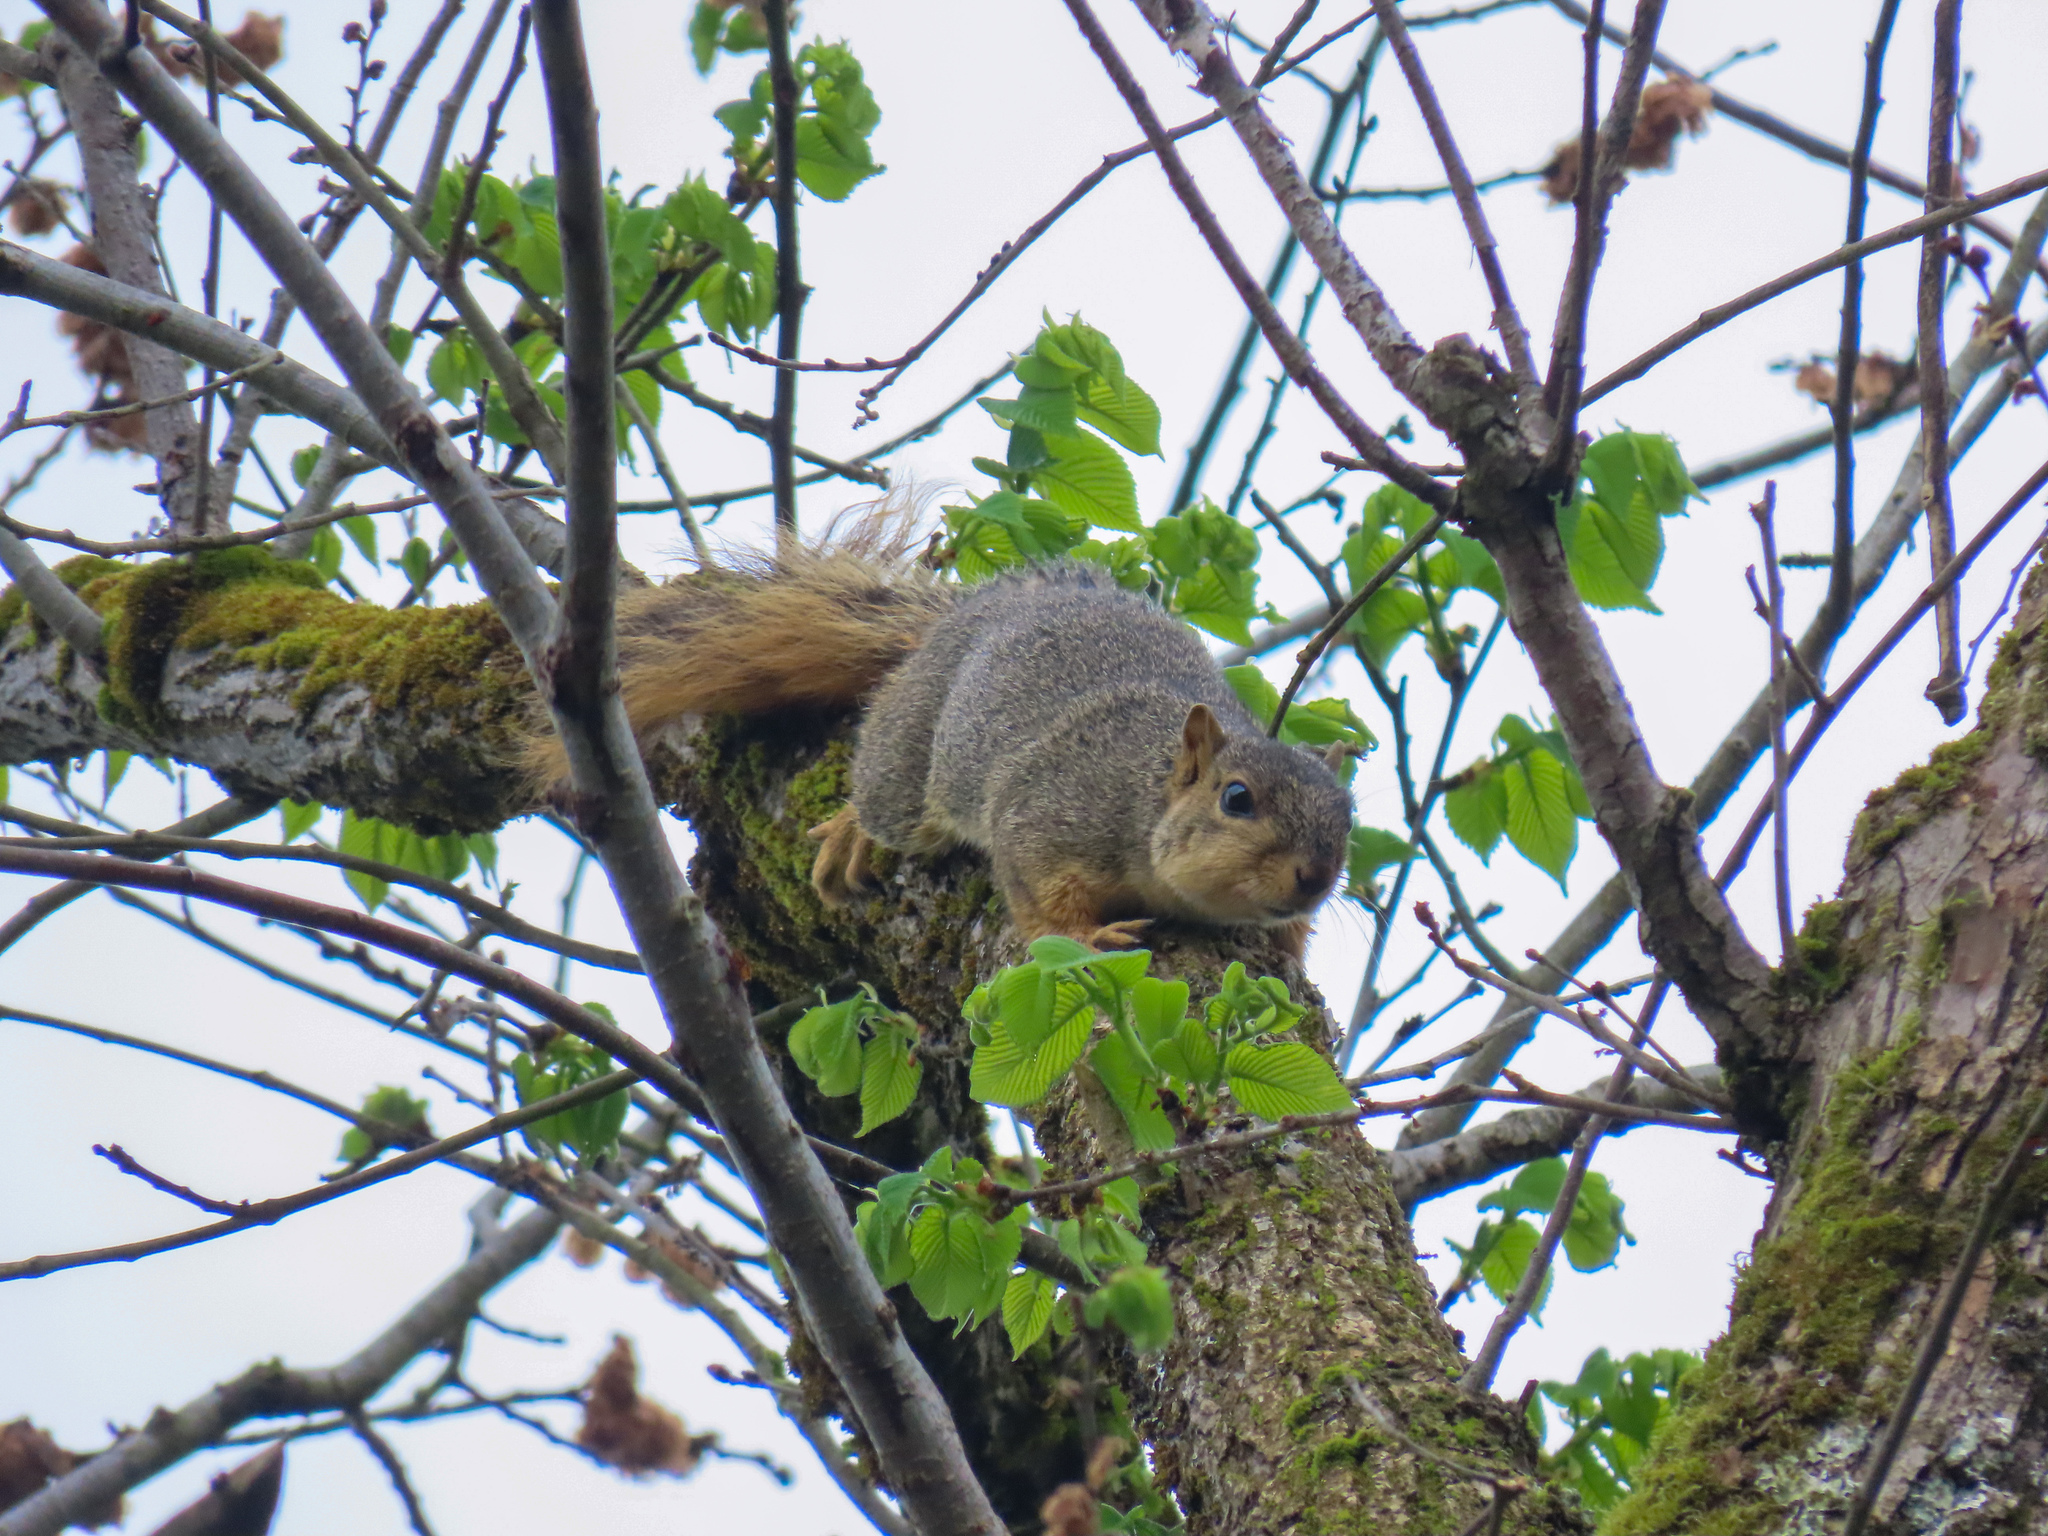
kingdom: Animalia
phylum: Chordata
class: Mammalia
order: Rodentia
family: Sciuridae
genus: Sciurus
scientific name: Sciurus niger
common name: Fox squirrel
